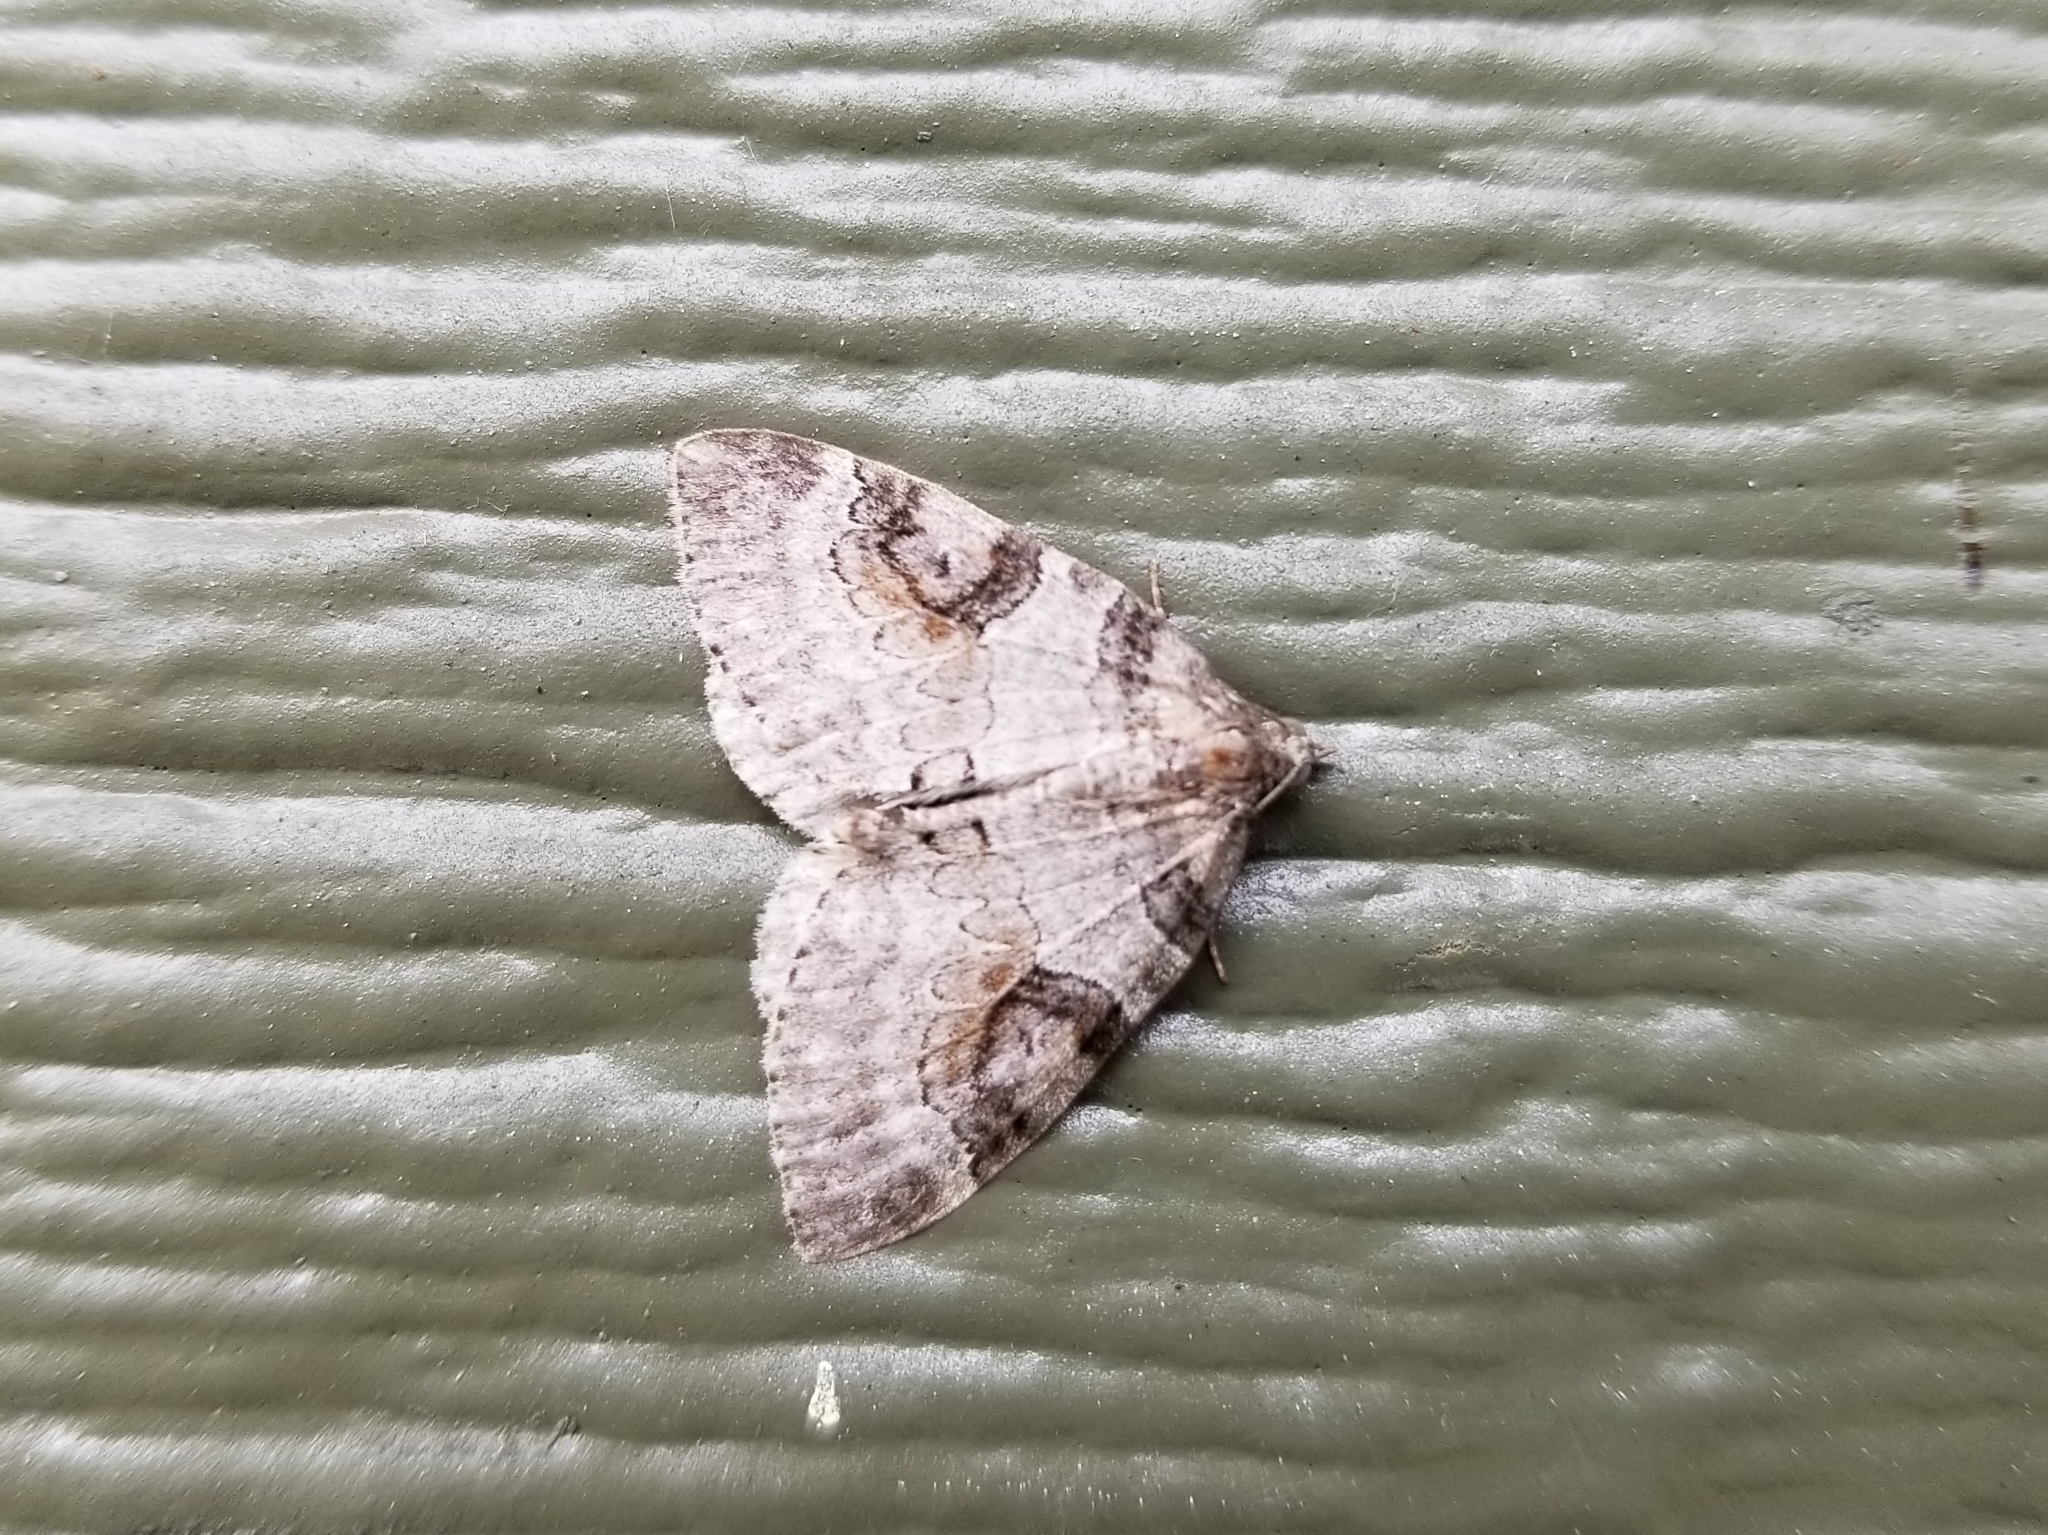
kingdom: Animalia
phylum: Arthropoda
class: Insecta
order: Lepidoptera
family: Geometridae
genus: Plemyria
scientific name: Plemyria georgii
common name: George's carpet moth
